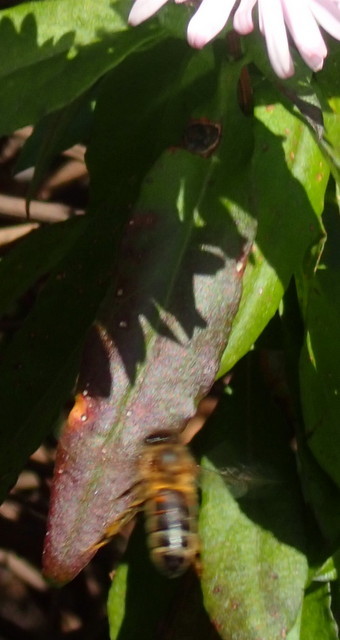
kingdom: Animalia
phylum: Arthropoda
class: Insecta
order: Hymenoptera
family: Apidae
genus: Apis
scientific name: Apis mellifera
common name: Honey bee
